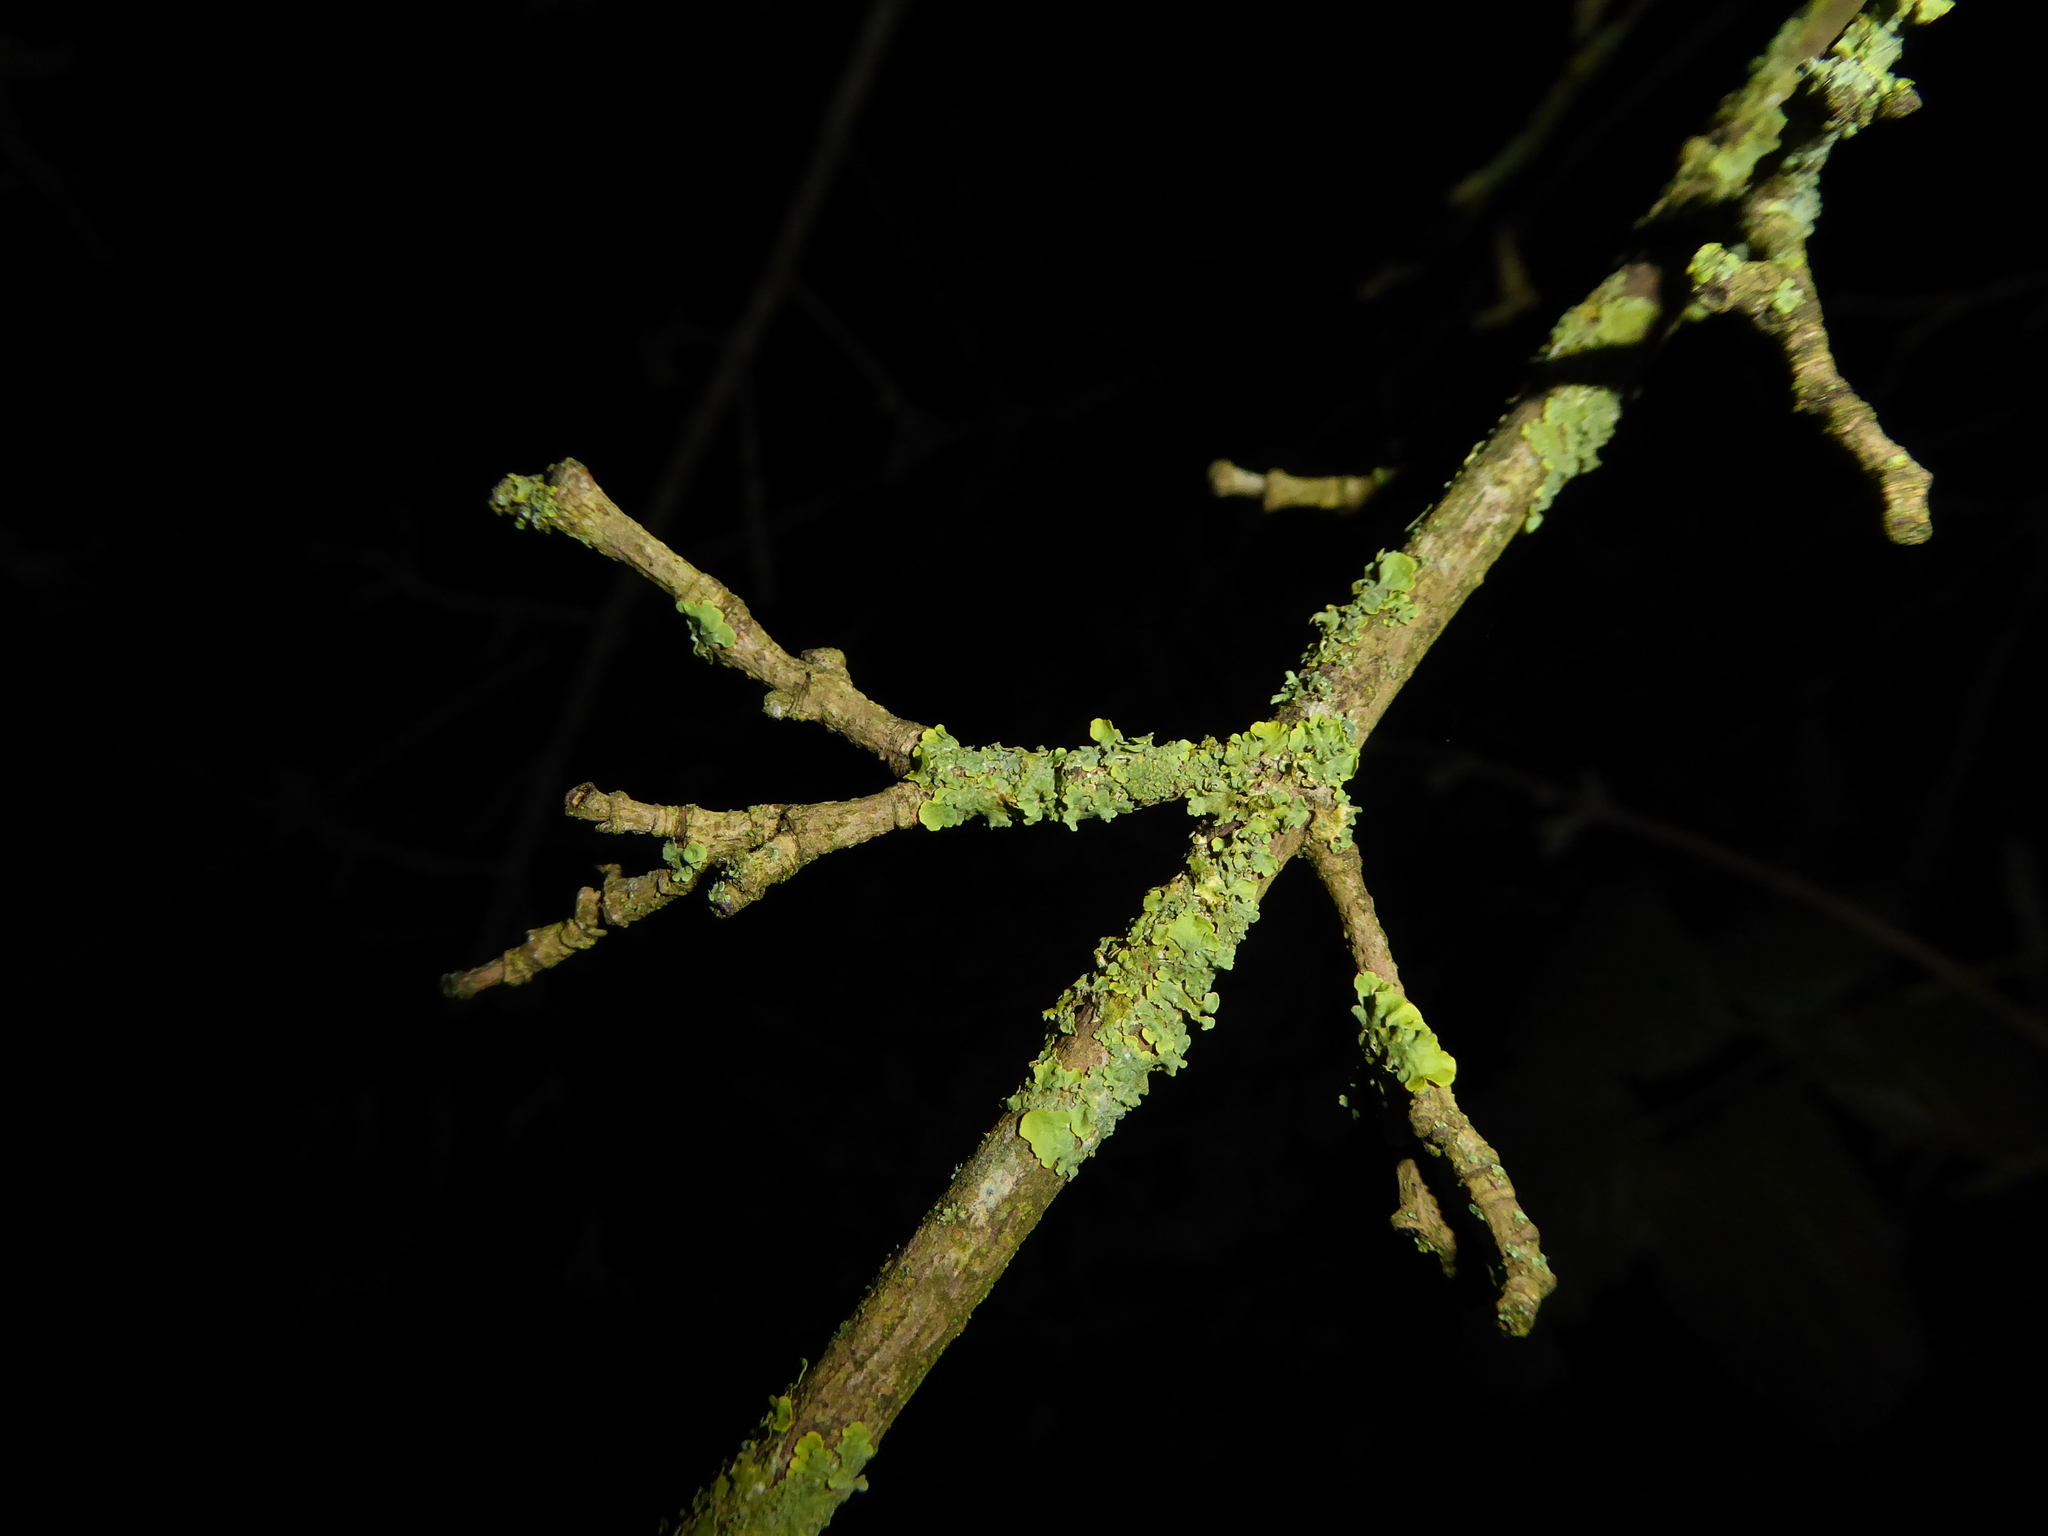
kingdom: Fungi
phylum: Ascomycota
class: Lecanoromycetes
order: Teloschistales
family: Teloschistaceae
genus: Xanthoria
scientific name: Xanthoria parietina
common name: Common orange lichen
